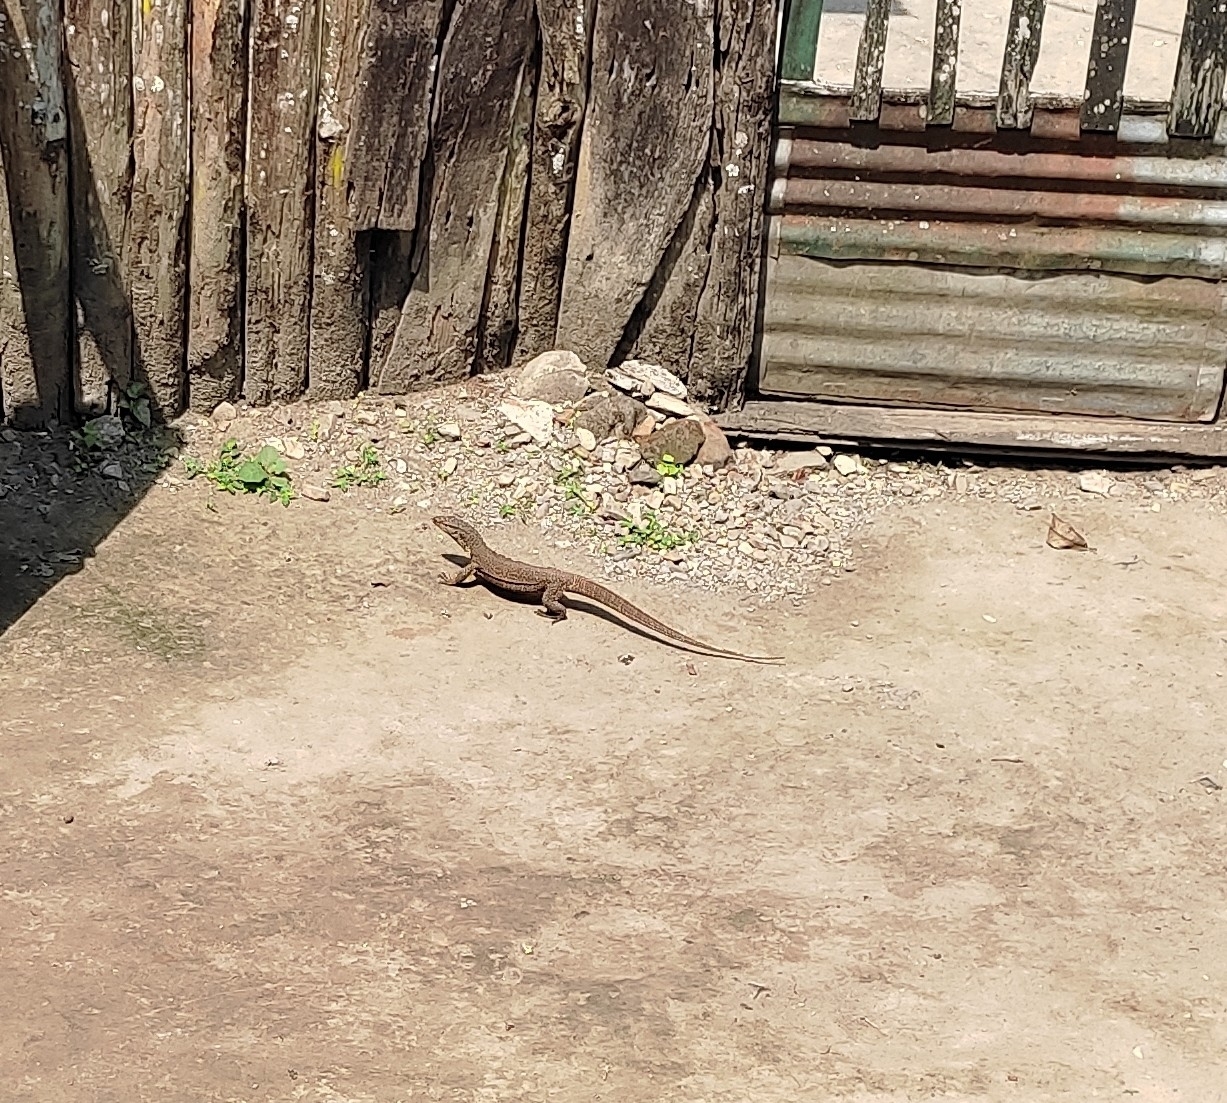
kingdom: Animalia
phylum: Chordata
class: Squamata
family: Varanidae
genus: Varanus
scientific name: Varanus bengalensis
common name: Bengal monitor
